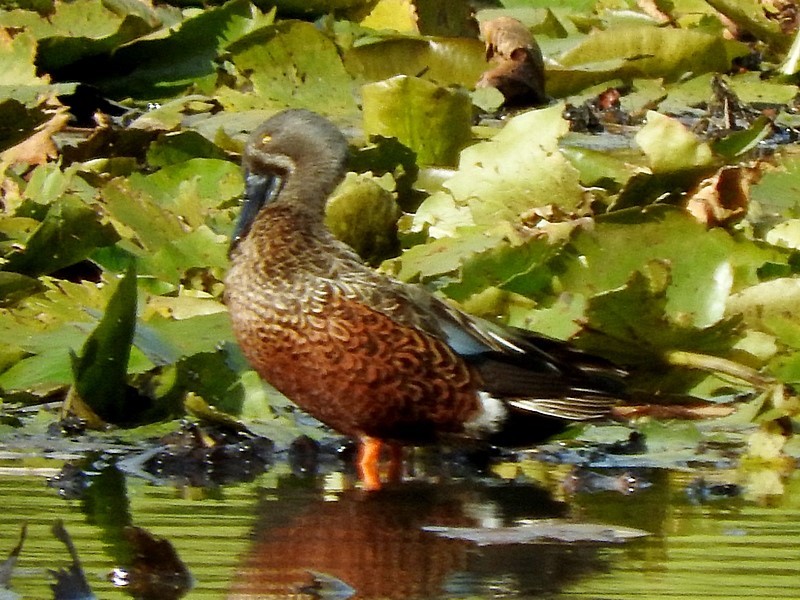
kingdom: Animalia
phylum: Chordata
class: Aves
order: Anseriformes
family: Anatidae
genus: Spatula
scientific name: Spatula rhynchotis
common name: Australian shoveler
